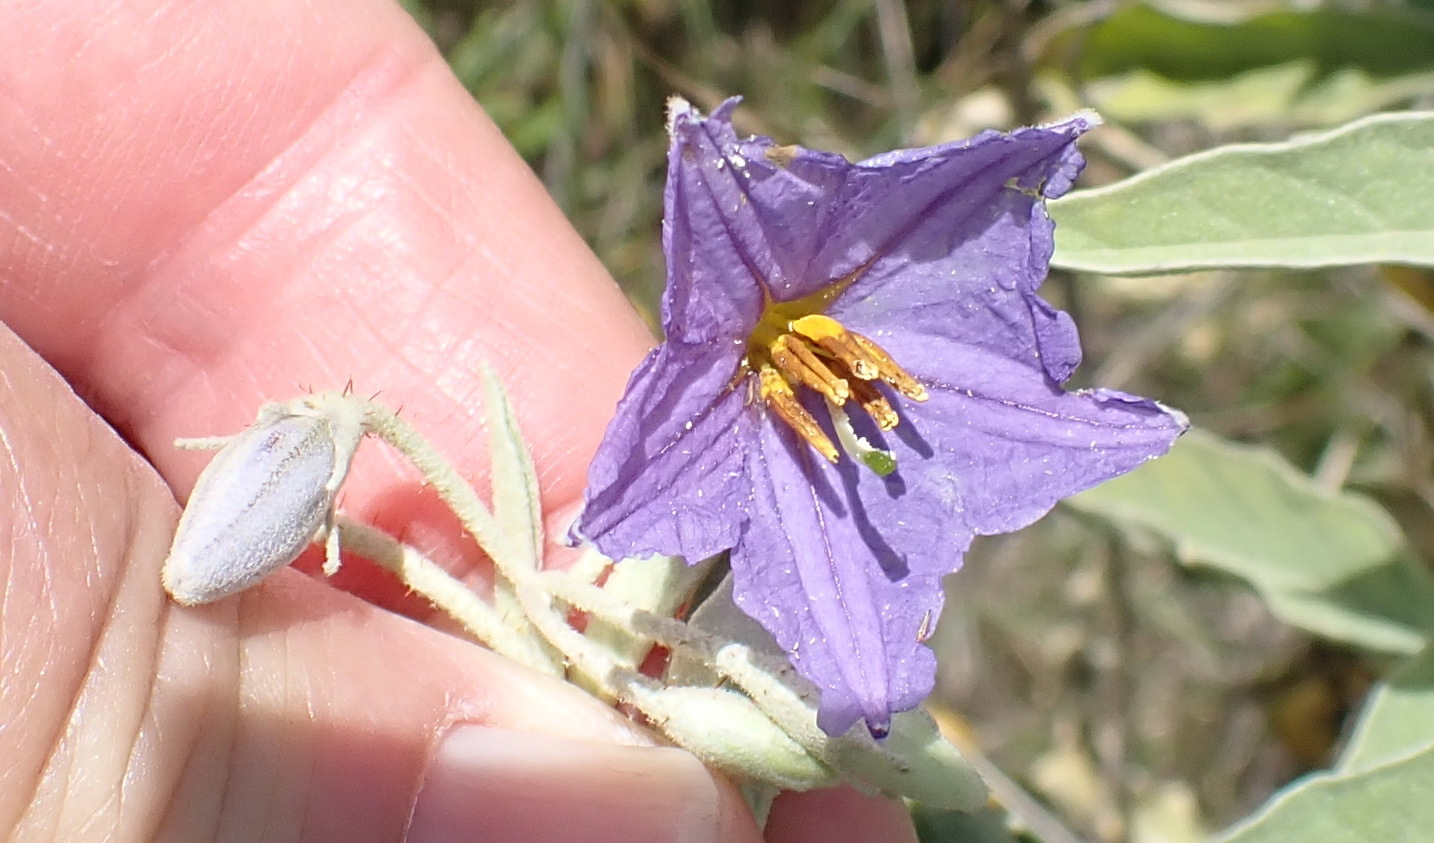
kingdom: Plantae
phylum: Tracheophyta
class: Magnoliopsida
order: Solanales
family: Solanaceae
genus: Solanum
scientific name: Solanum elaeagnifolium
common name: Silverleaf nightshade
